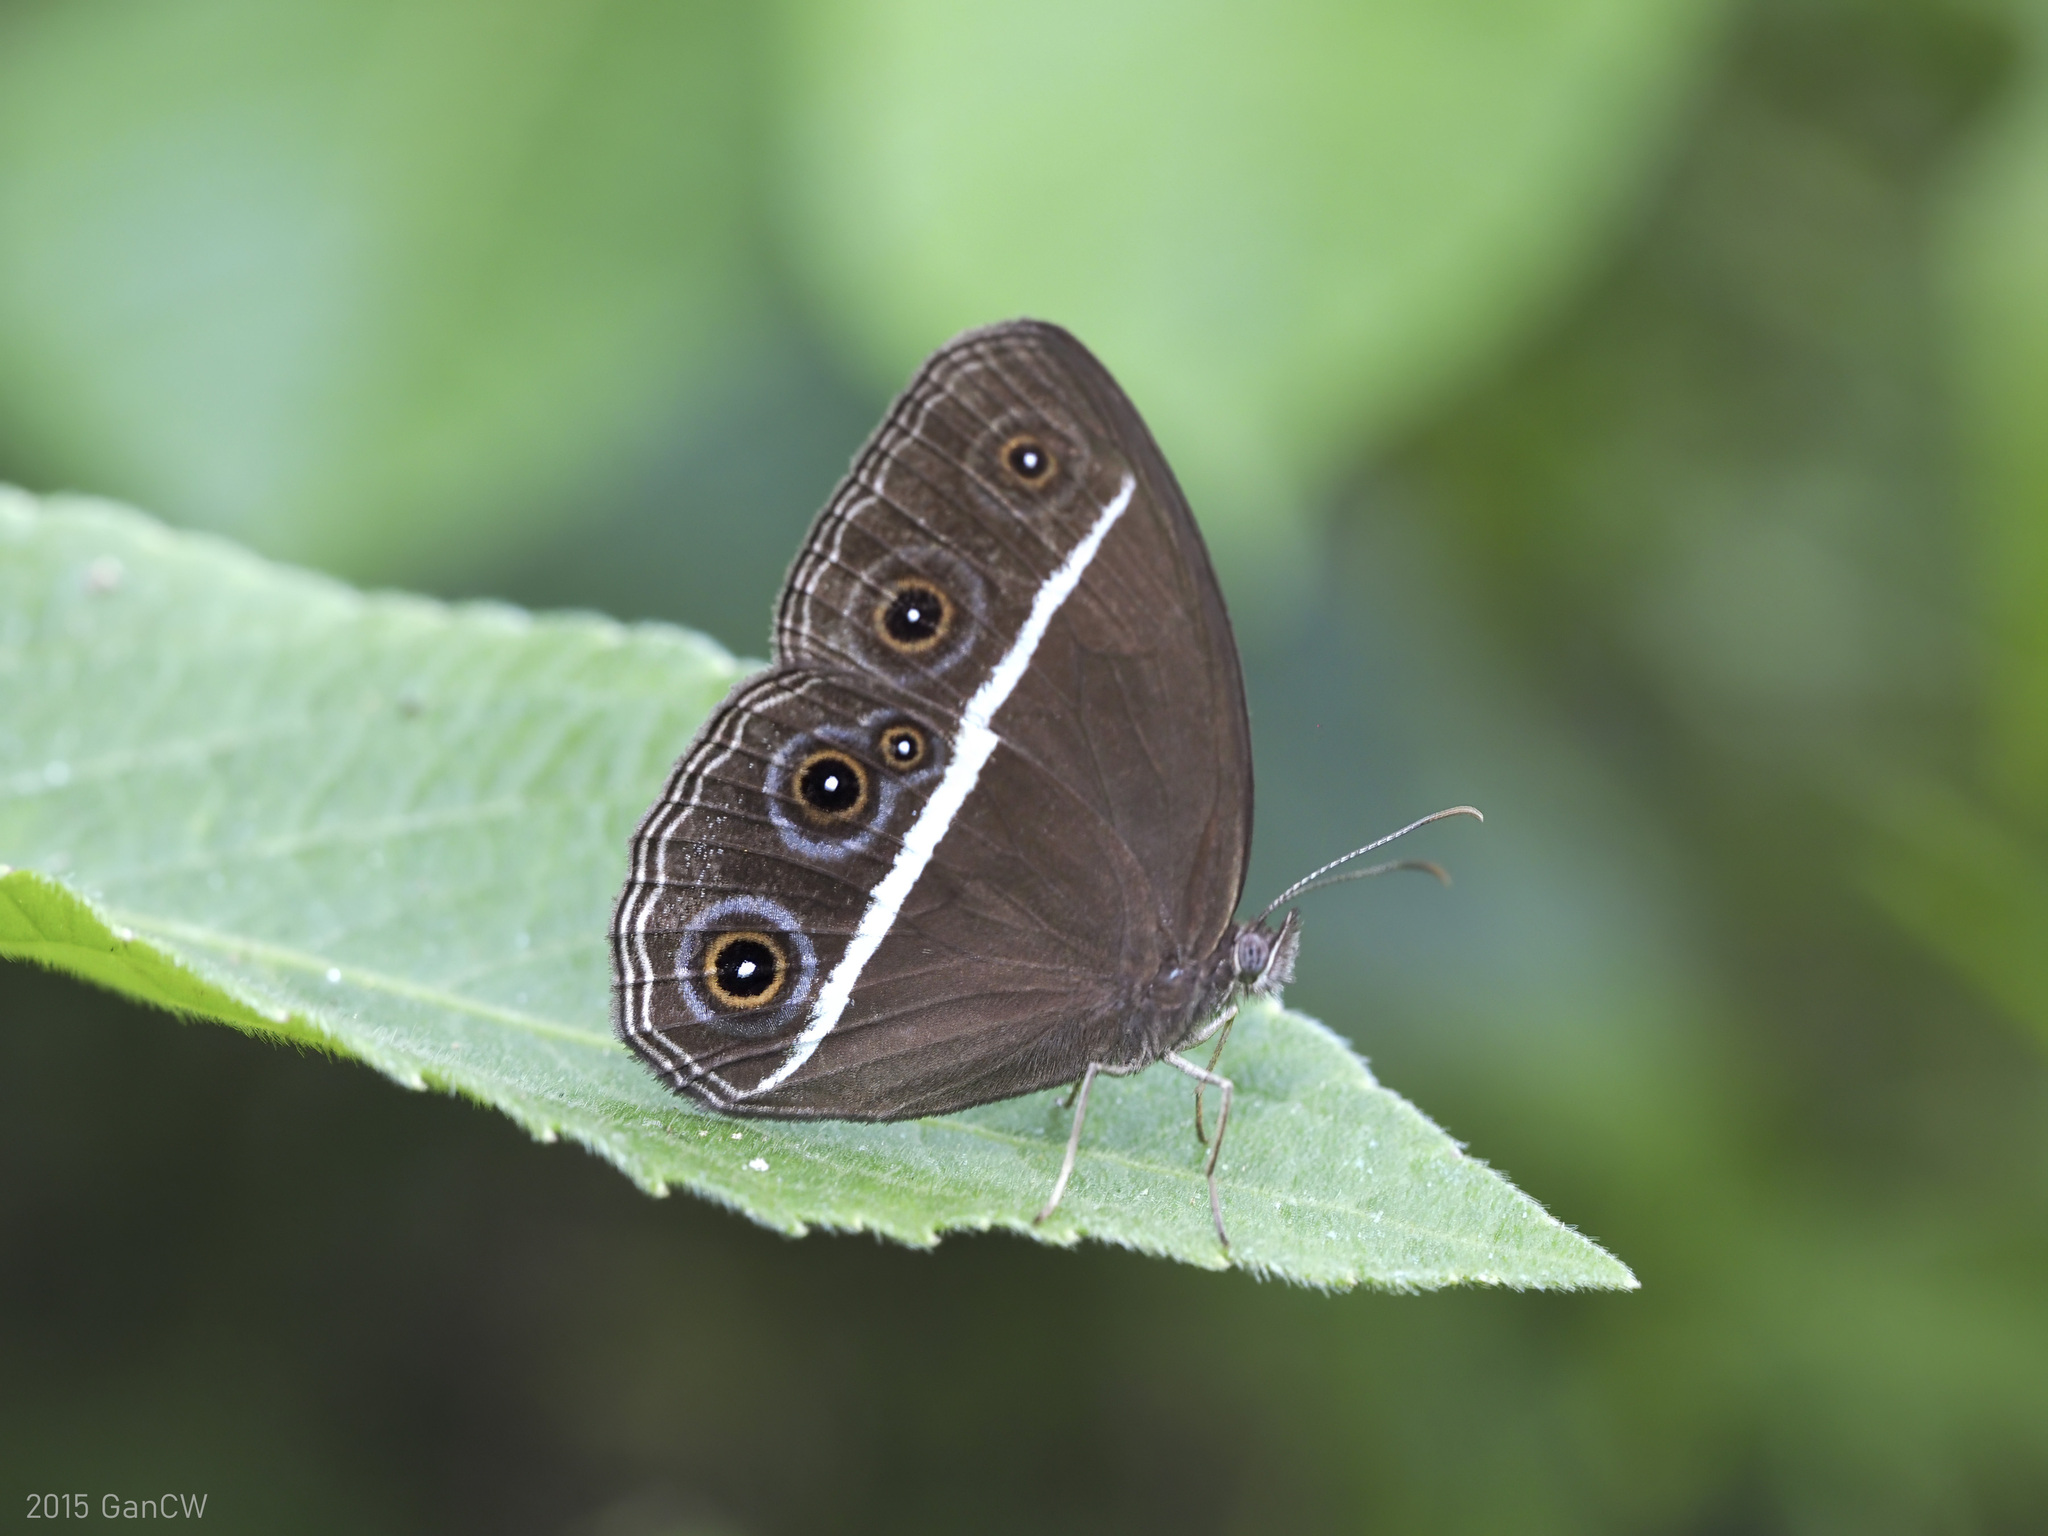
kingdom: Animalia
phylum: Arthropoda
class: Insecta
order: Lepidoptera
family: Nymphalidae
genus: Orsotriaena
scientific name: Orsotriaena medus
